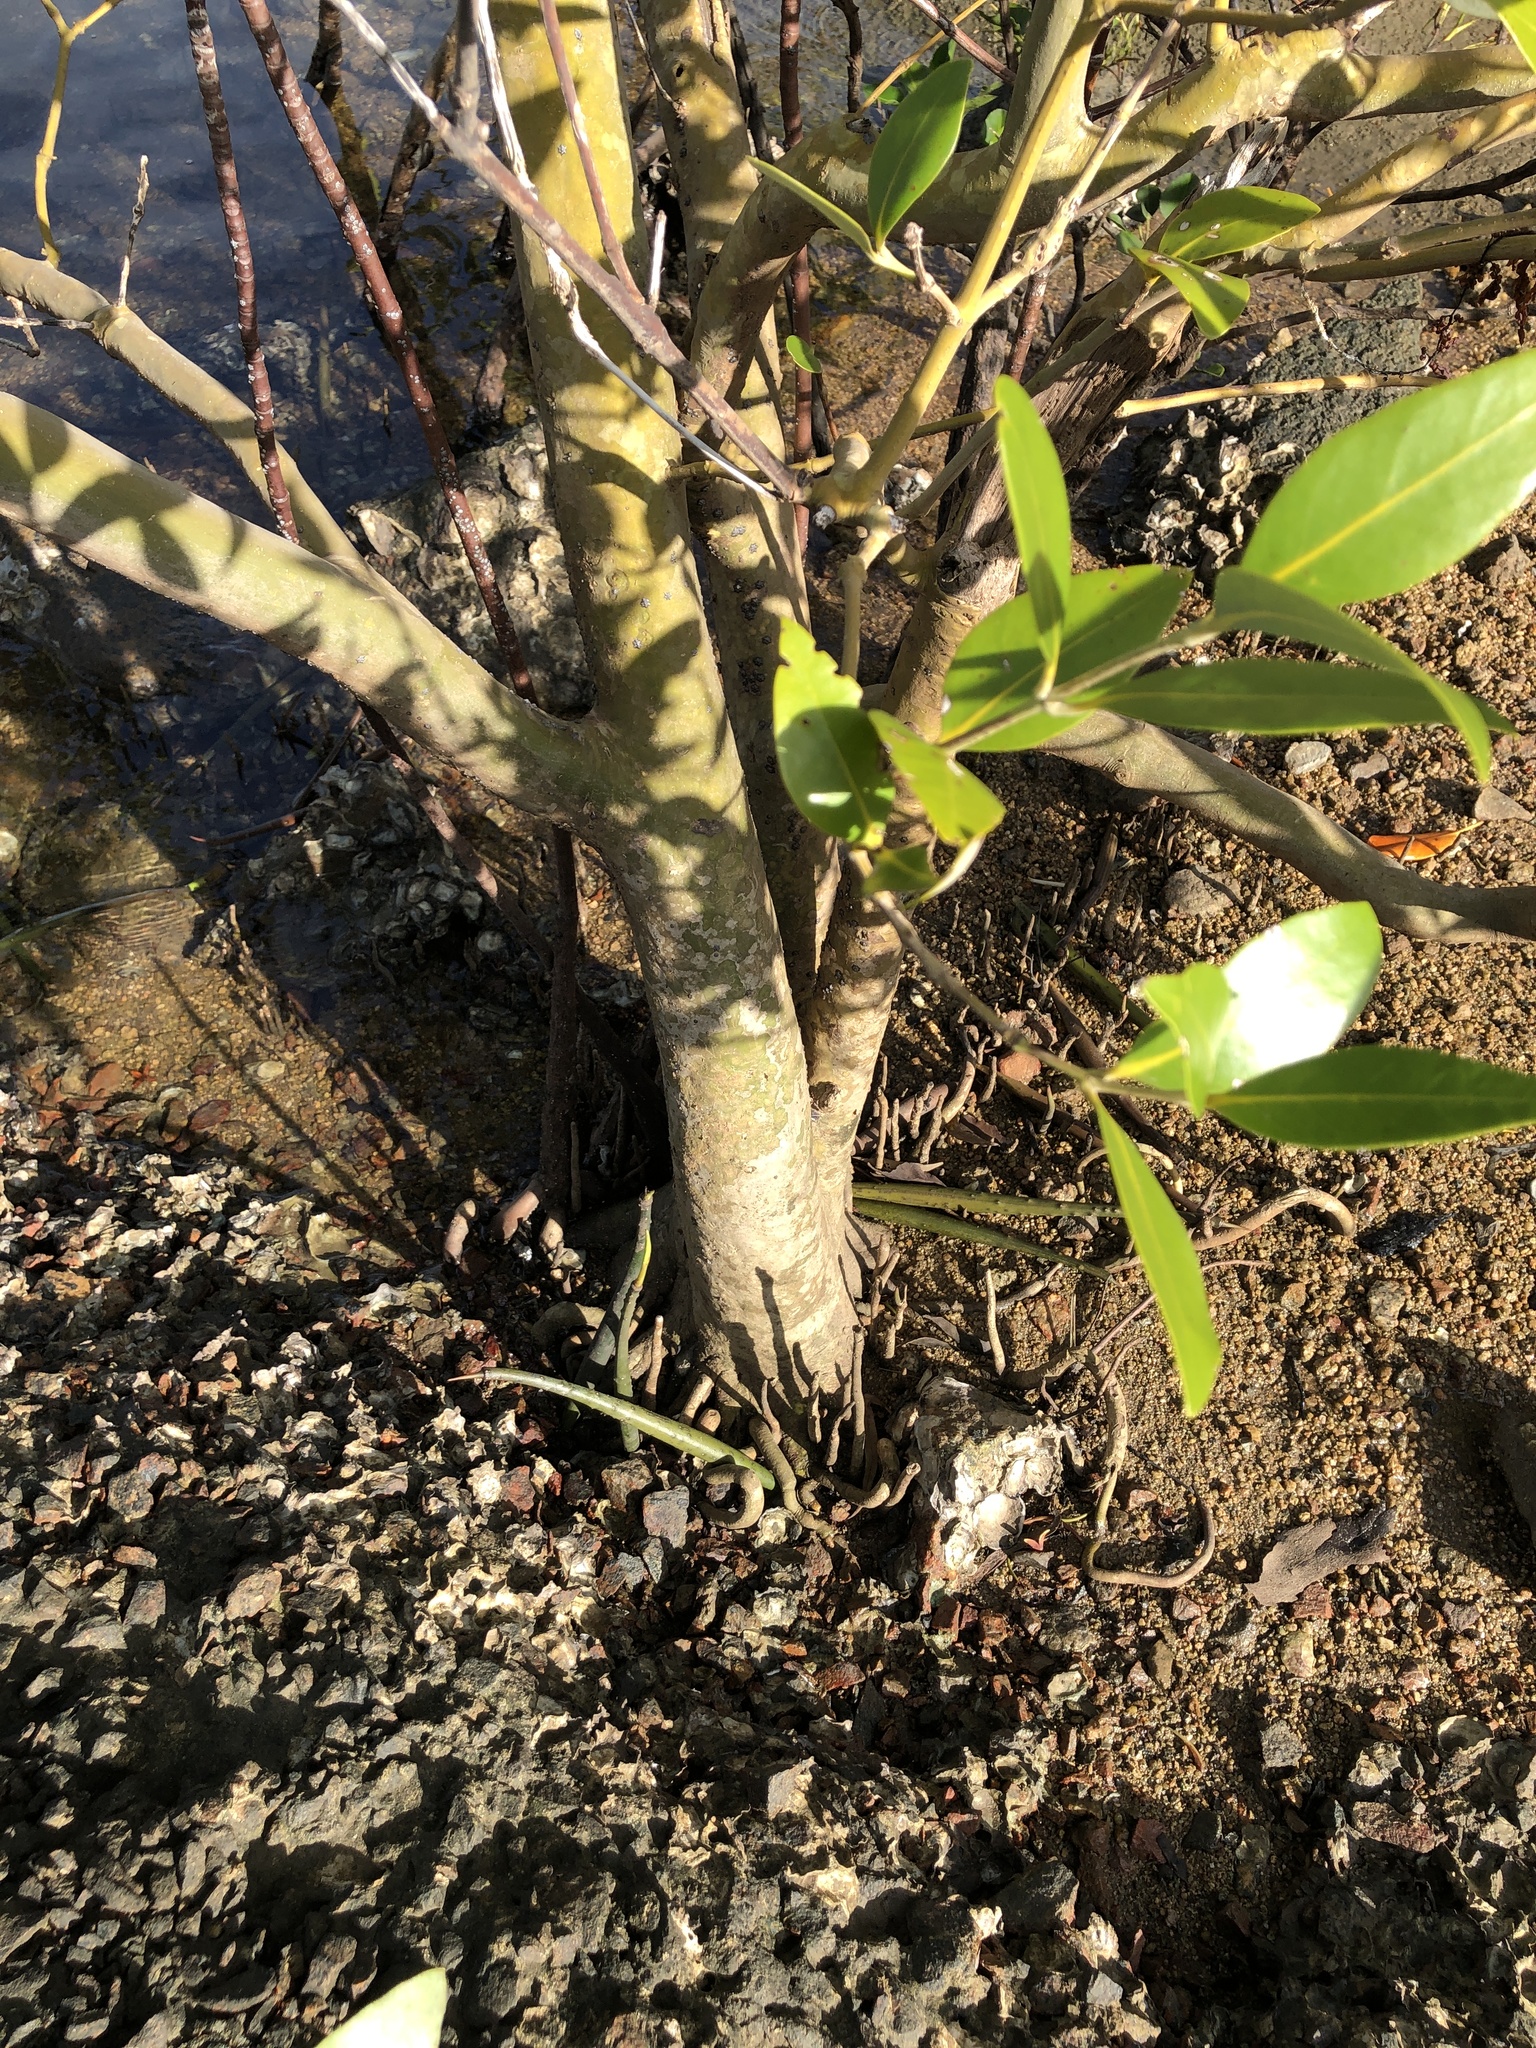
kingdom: Plantae
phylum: Tracheophyta
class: Magnoliopsida
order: Lamiales
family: Acanthaceae
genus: Avicennia
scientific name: Avicennia marina
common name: Gray mangrove
